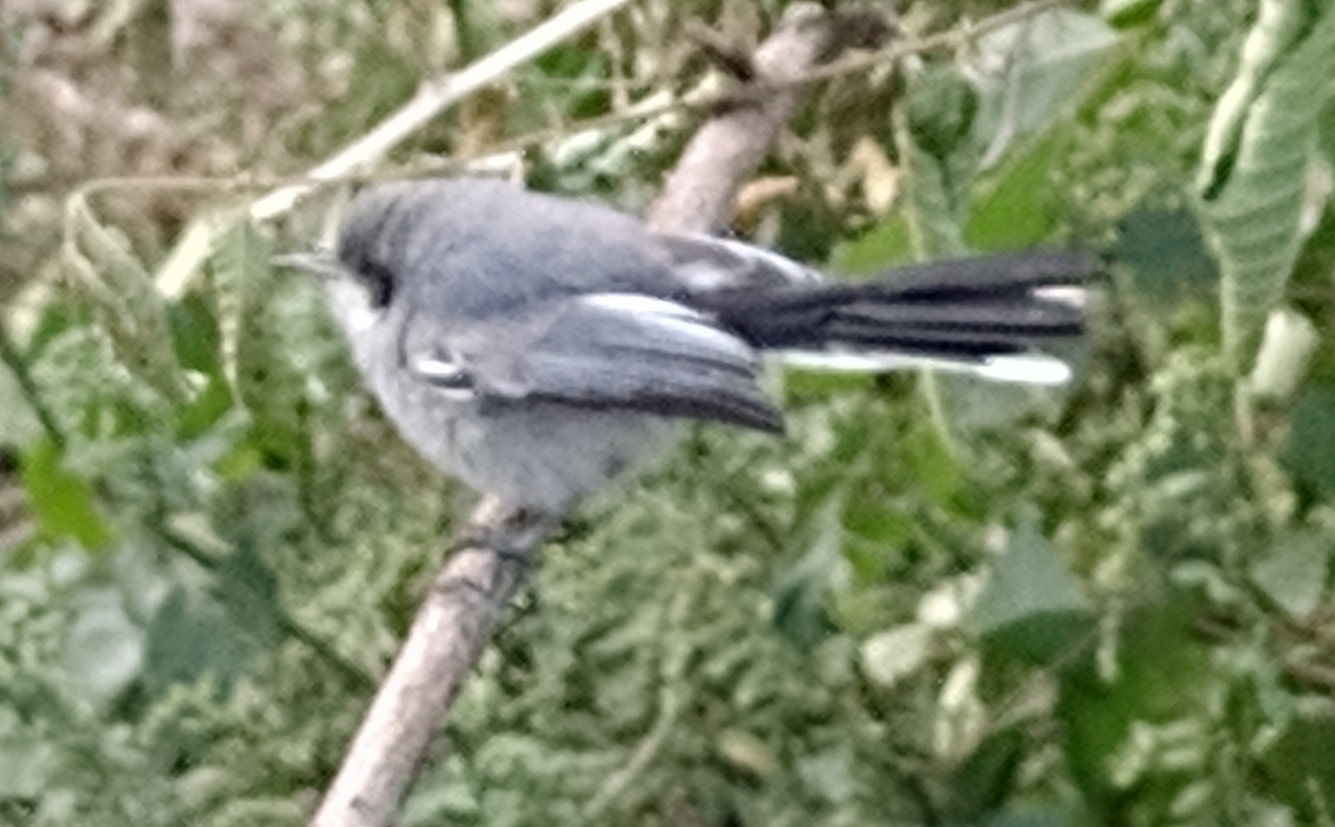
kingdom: Animalia
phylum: Chordata
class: Aves
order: Passeriformes
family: Polioptilidae
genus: Polioptila
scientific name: Polioptila dumicola
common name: Masked gnatcatcher
